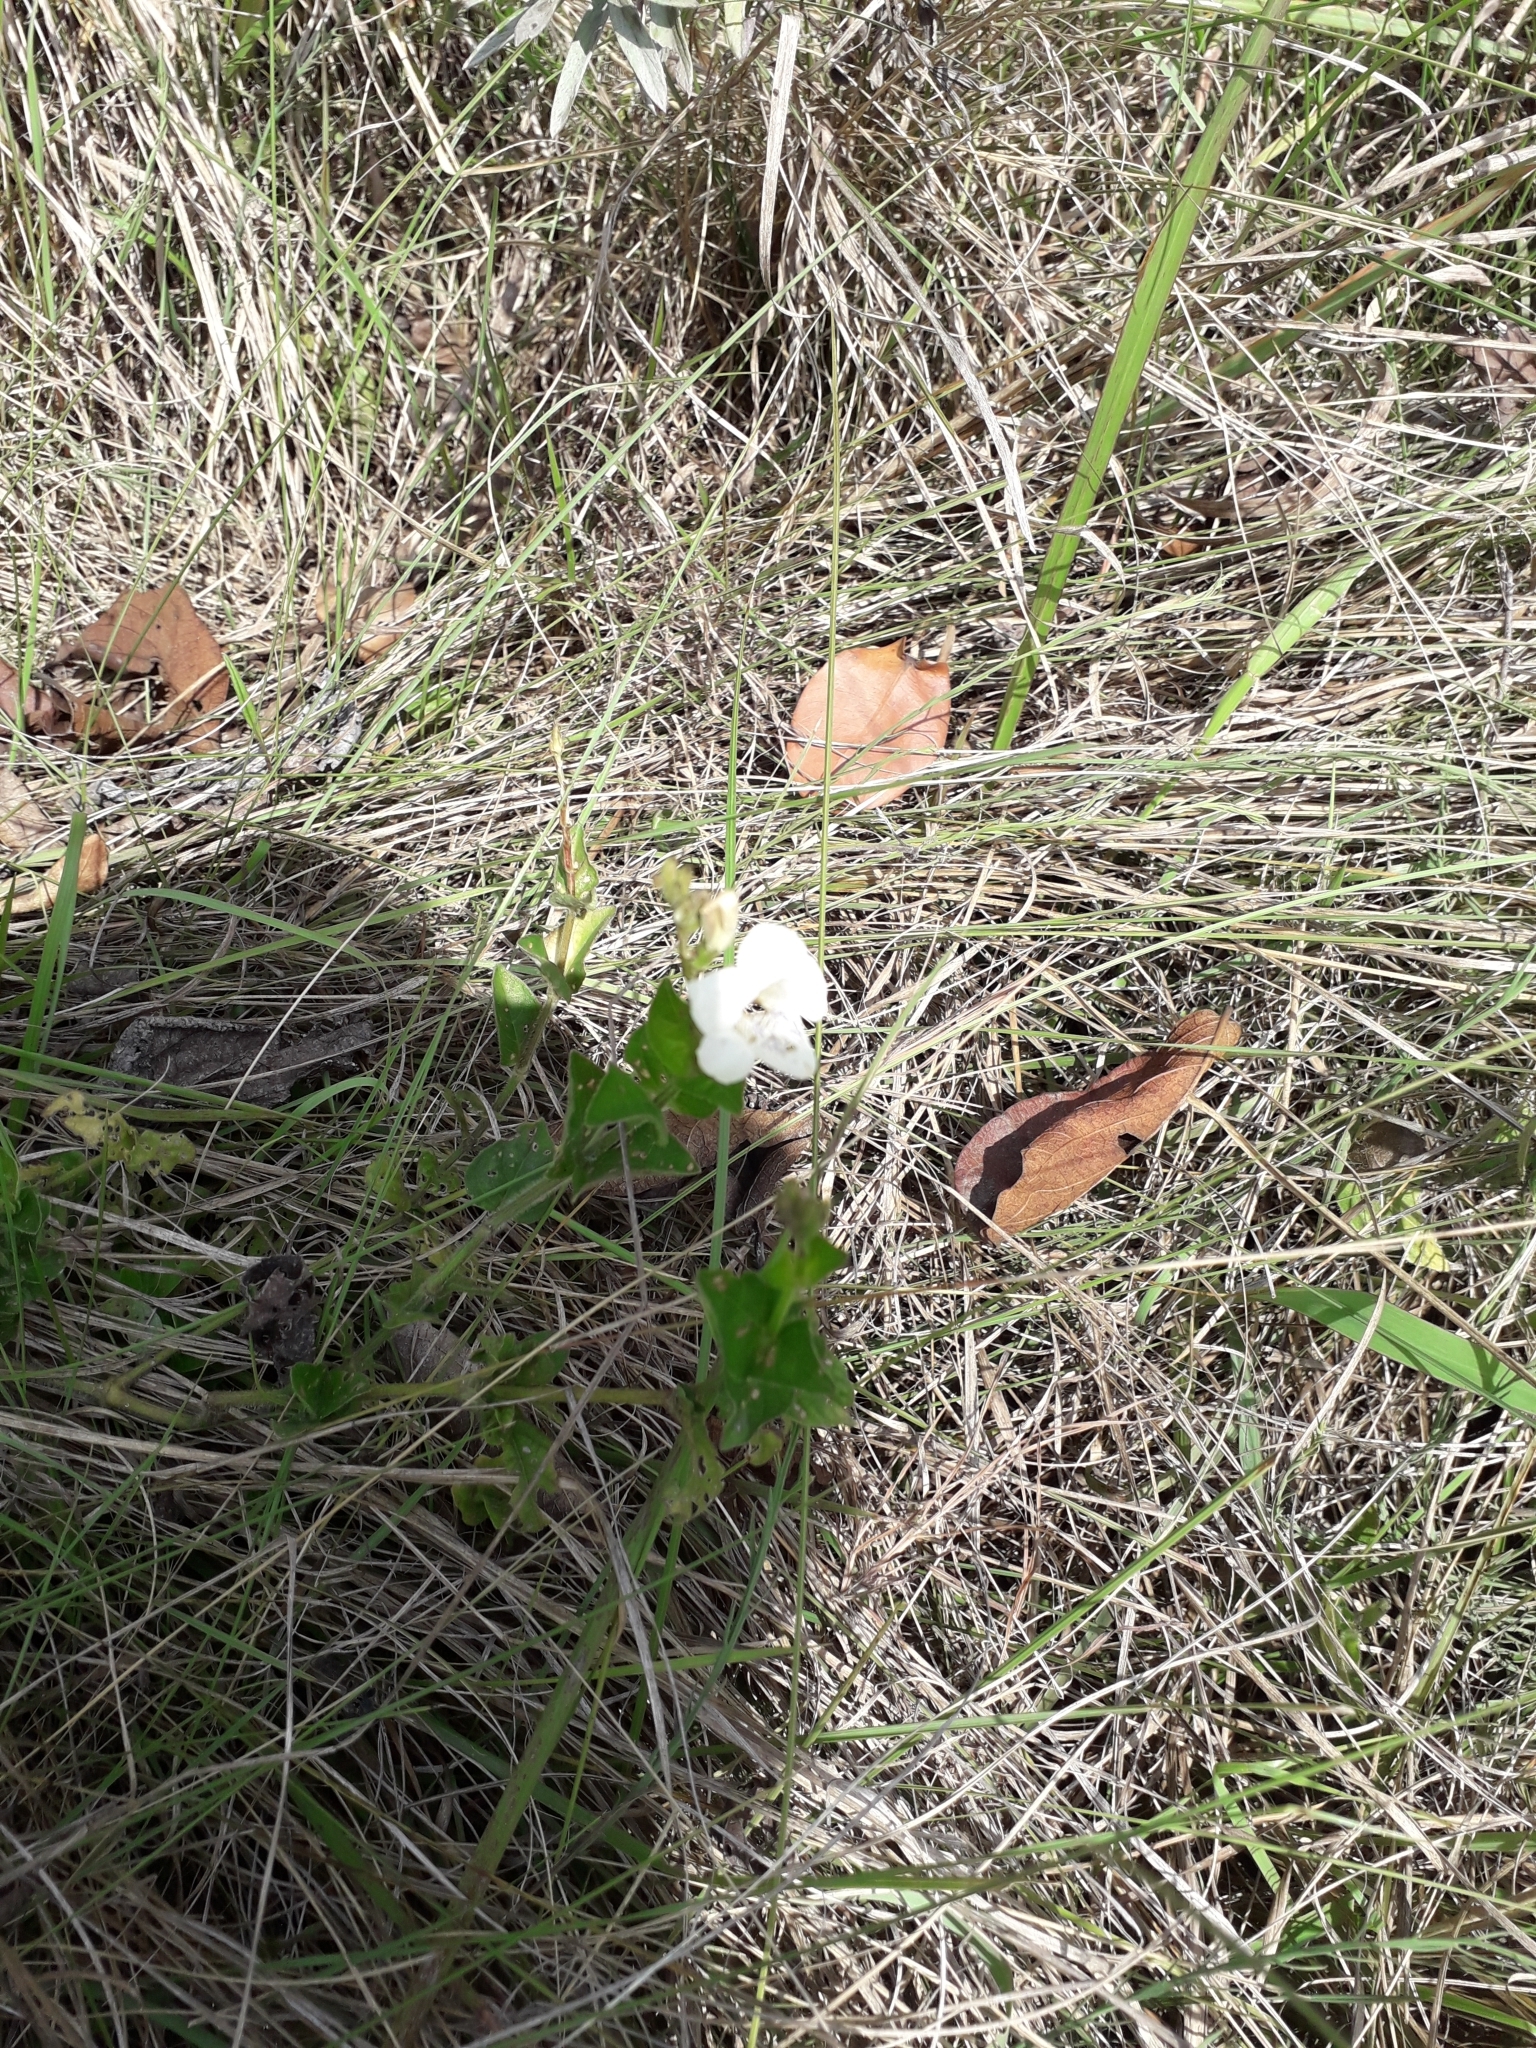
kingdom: Plantae
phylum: Tracheophyta
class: Magnoliopsida
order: Lamiales
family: Acanthaceae
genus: Asystasia
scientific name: Asystasia intrusa
